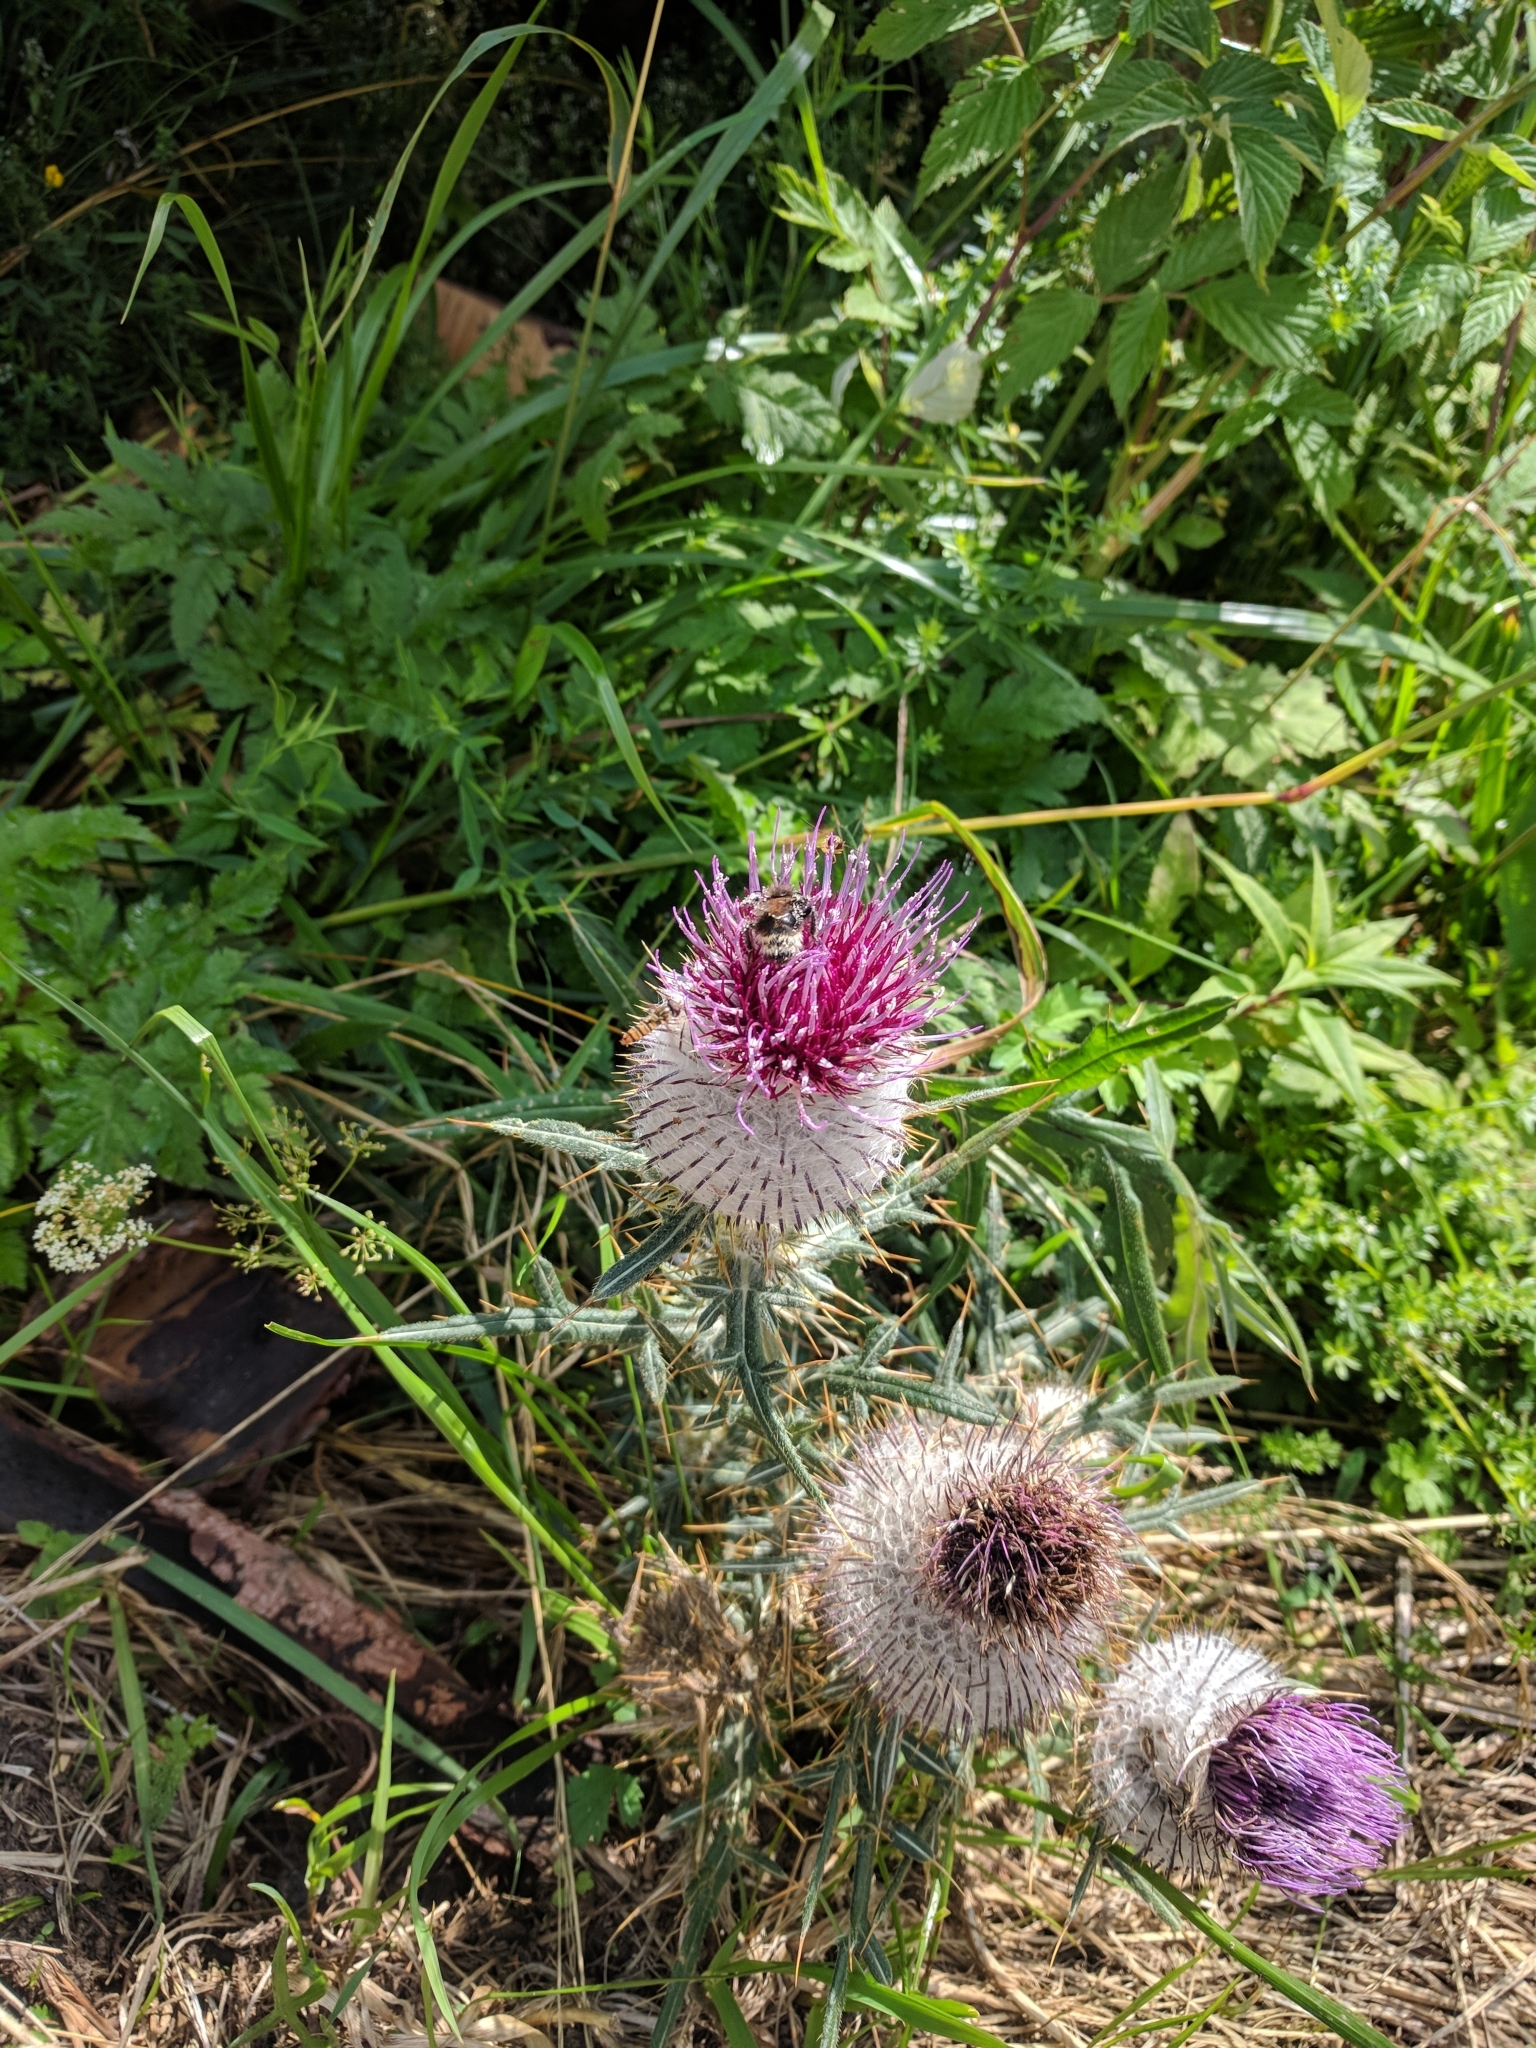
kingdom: Plantae
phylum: Tracheophyta
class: Magnoliopsida
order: Asterales
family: Asteraceae
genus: Lophiolepis
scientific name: Lophiolepis eriophora
